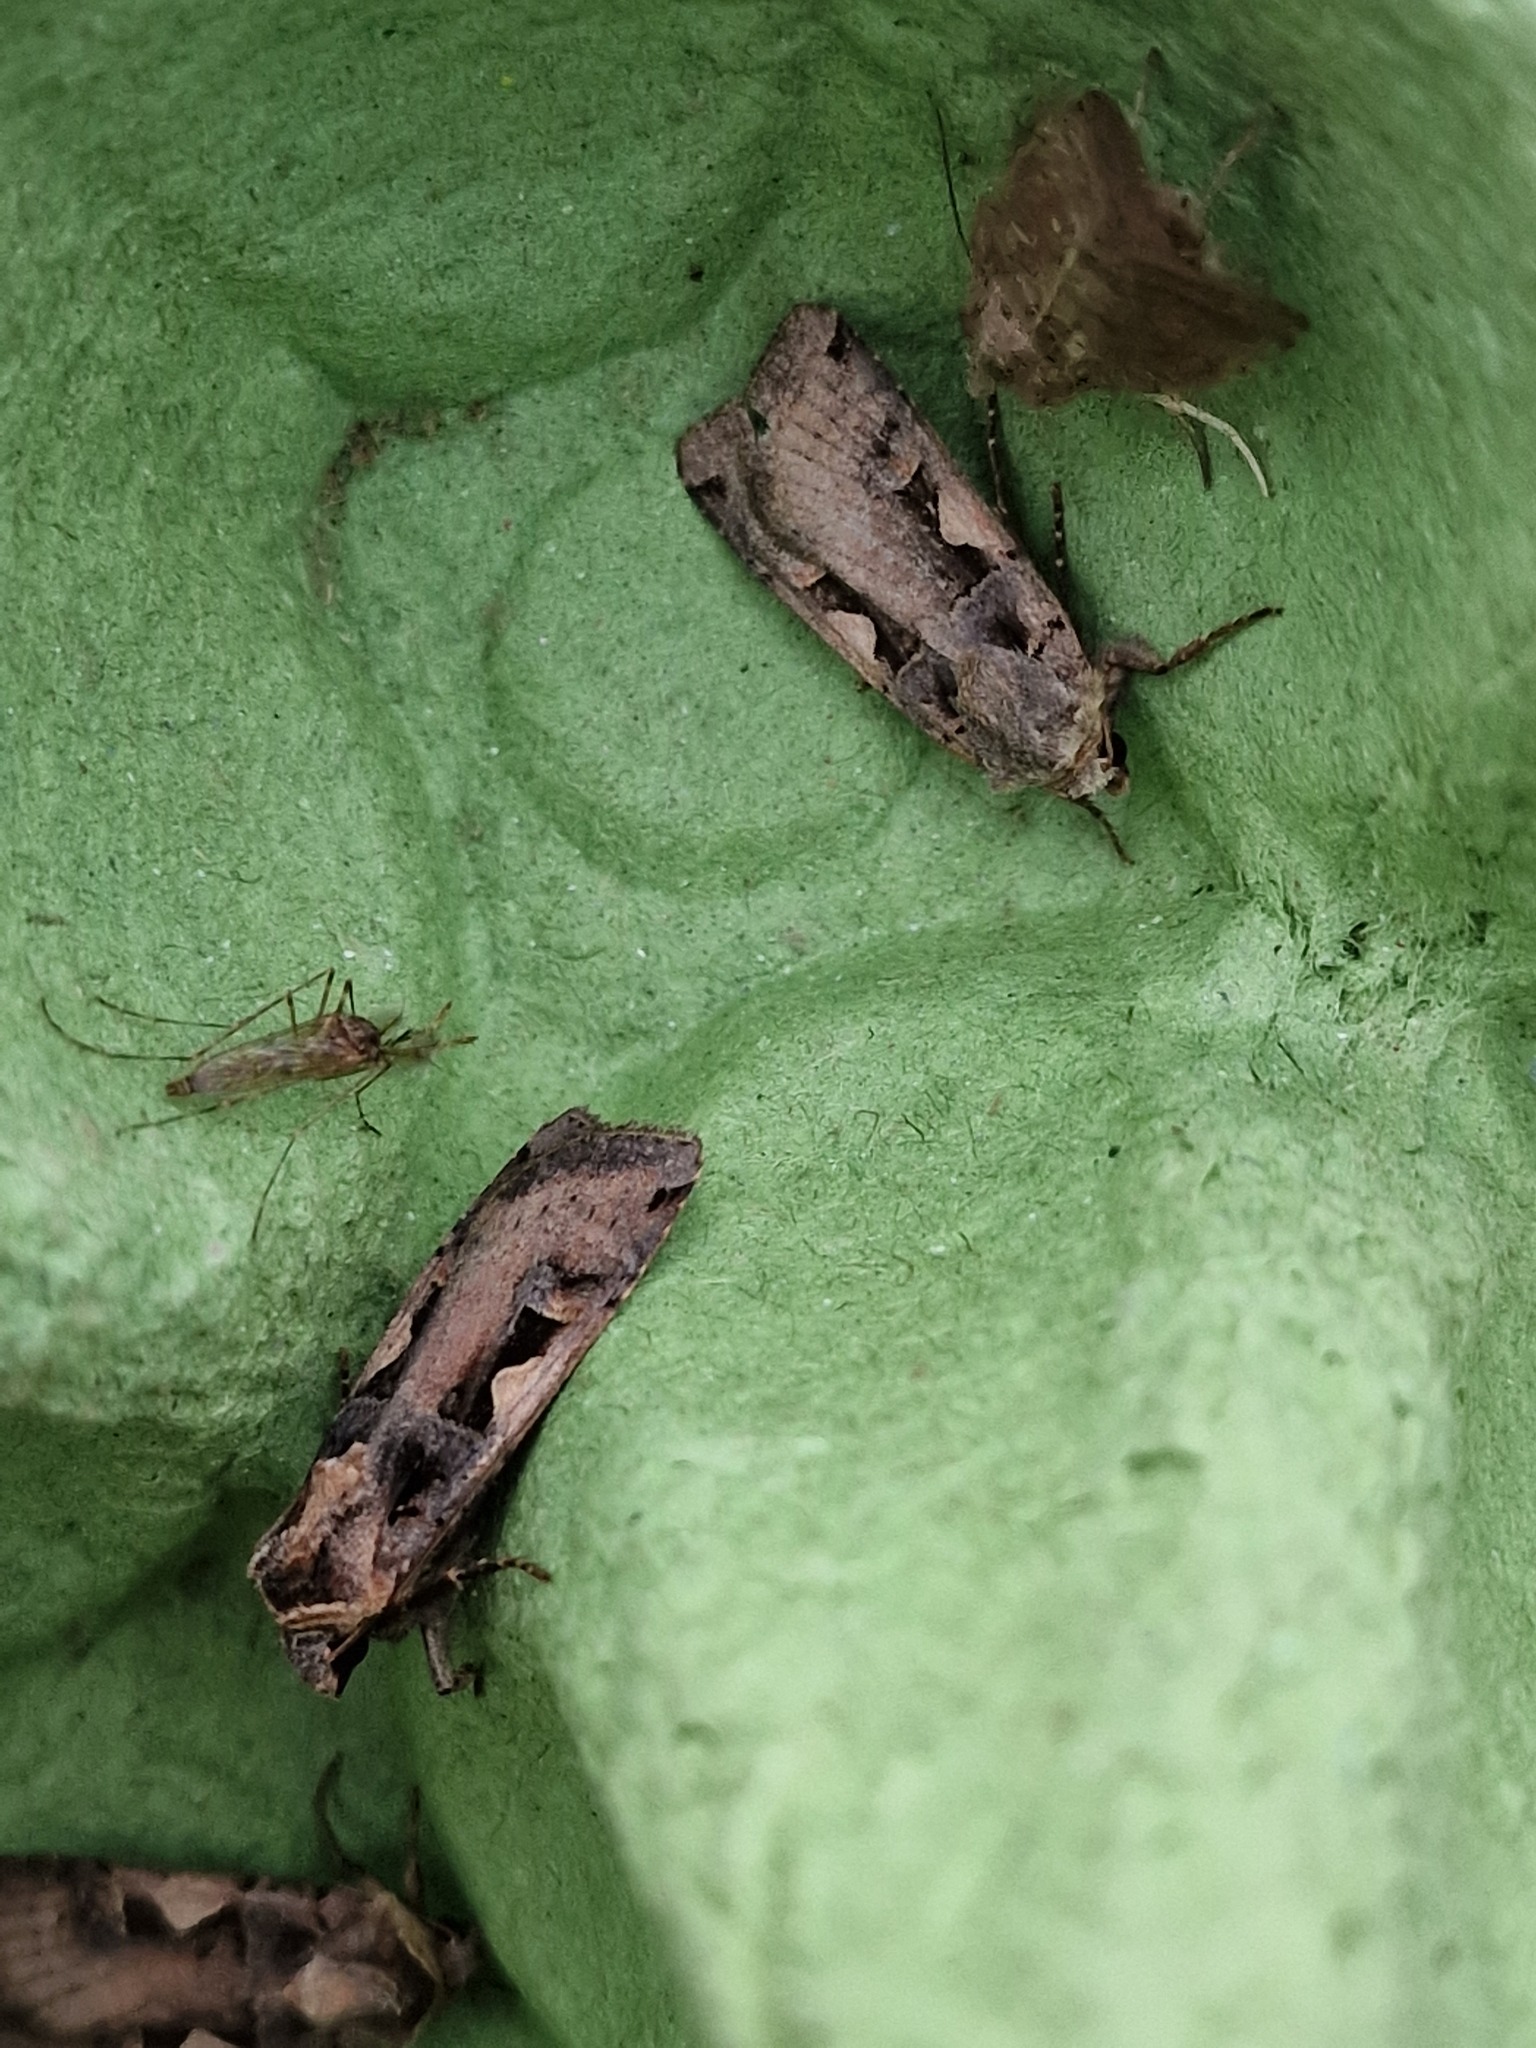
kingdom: Animalia
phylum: Arthropoda
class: Insecta
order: Lepidoptera
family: Noctuidae
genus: Xestia
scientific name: Xestia c-nigrum
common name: Setaceous hebrew character
